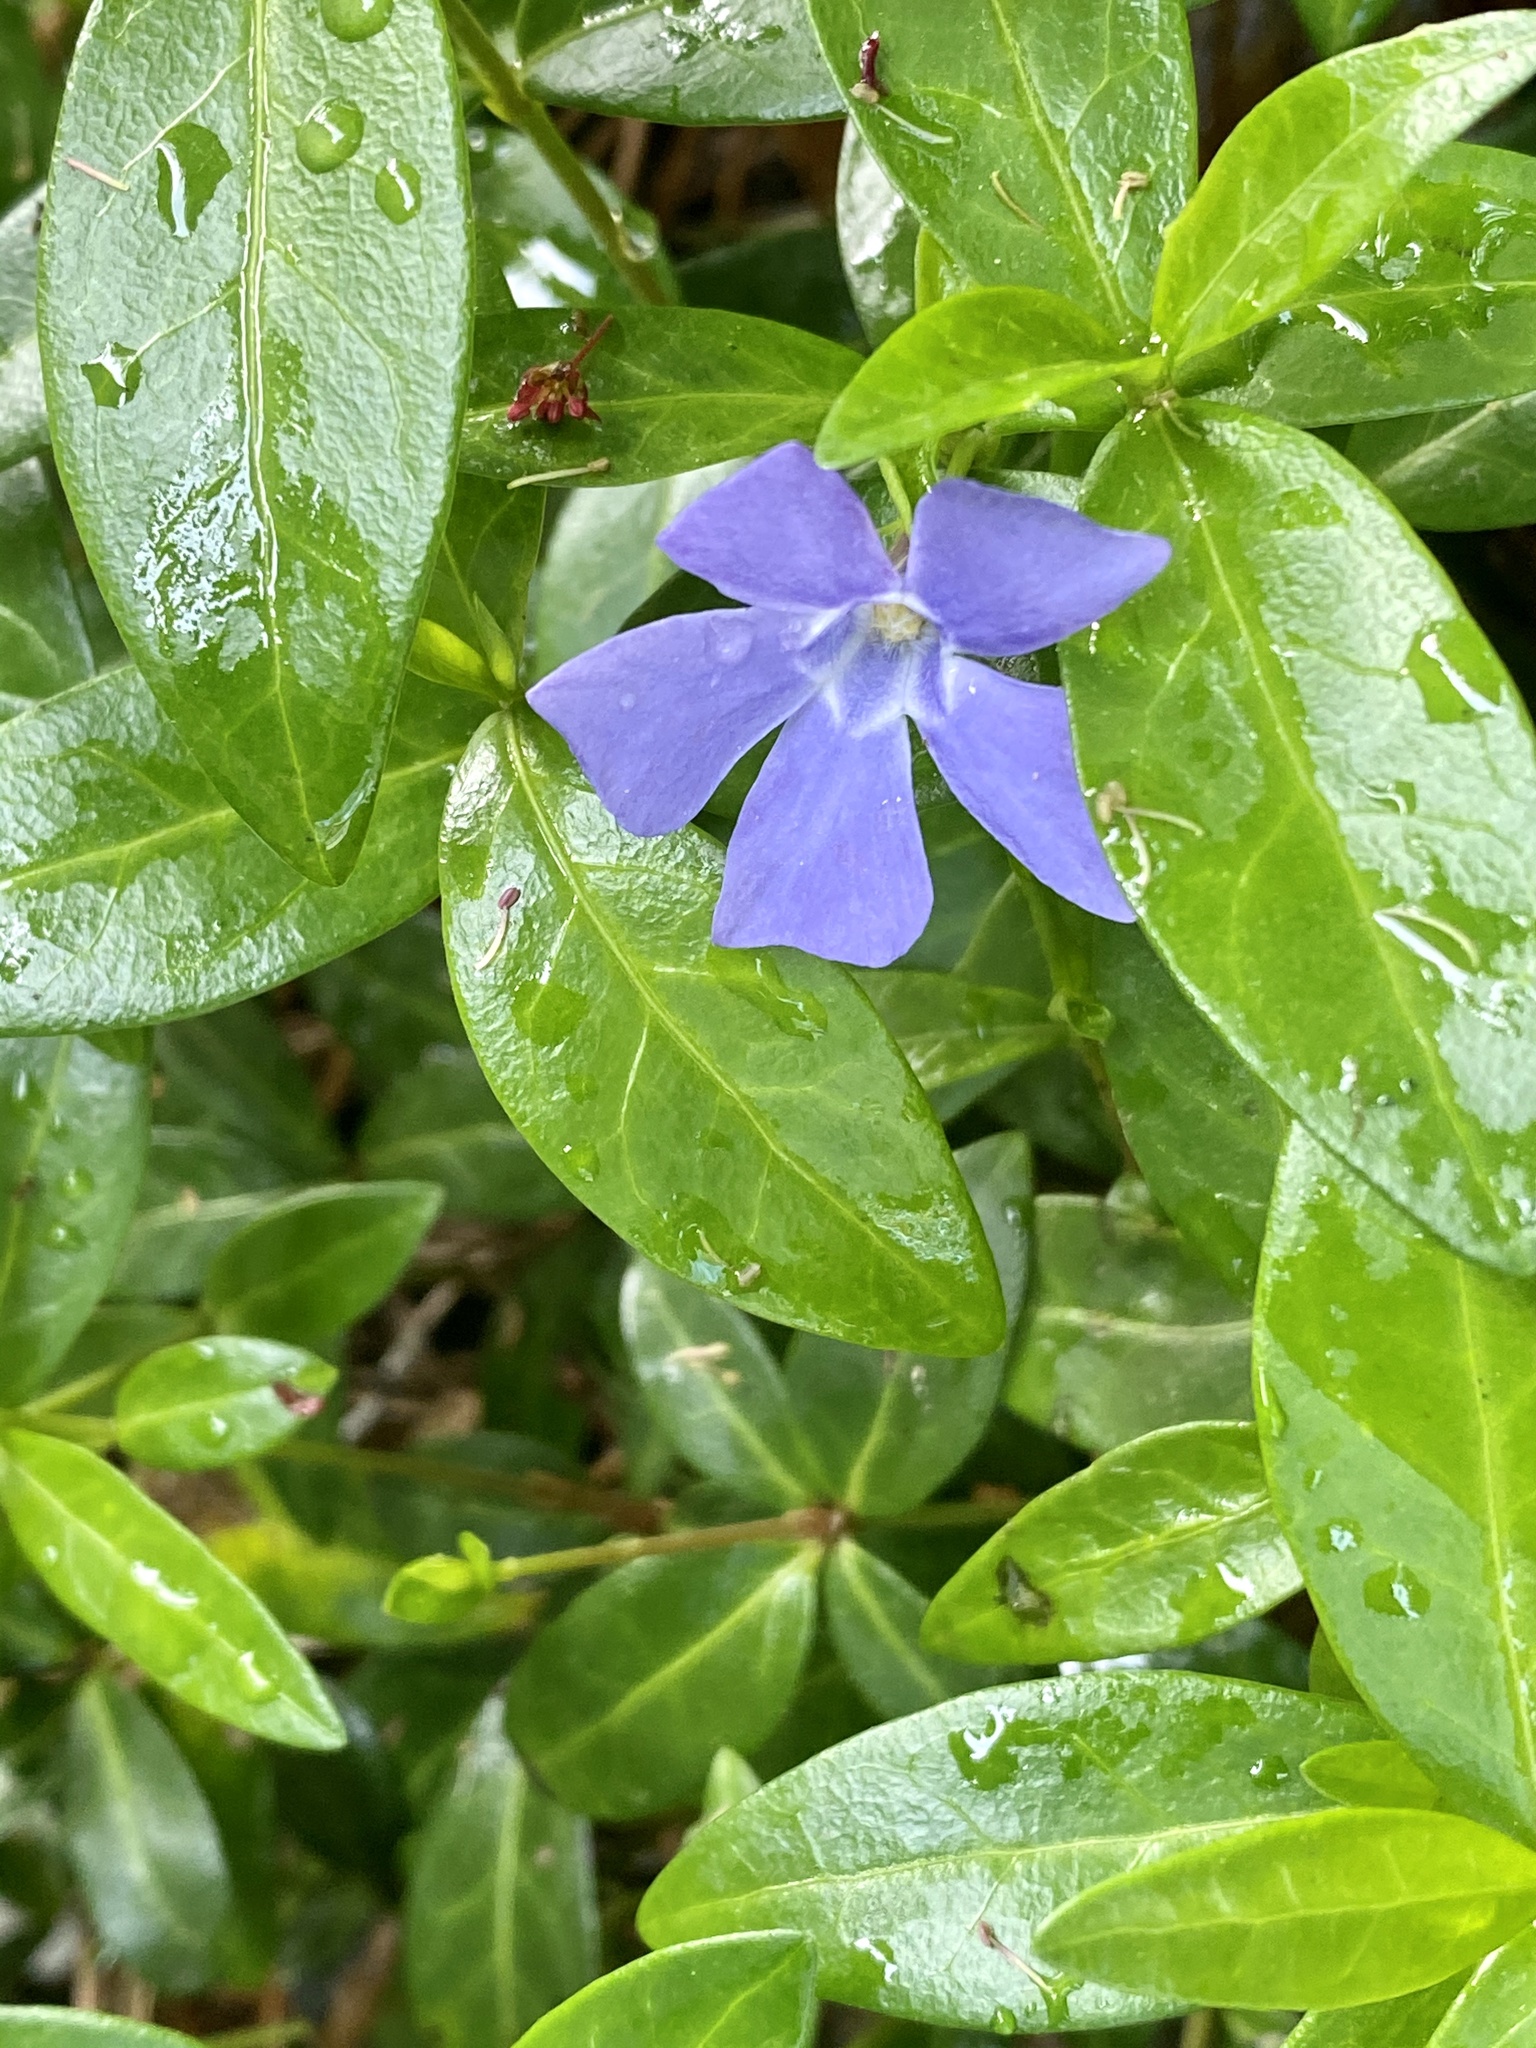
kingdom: Plantae
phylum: Tracheophyta
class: Magnoliopsida
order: Gentianales
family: Apocynaceae
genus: Vinca
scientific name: Vinca minor
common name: Lesser periwinkle
